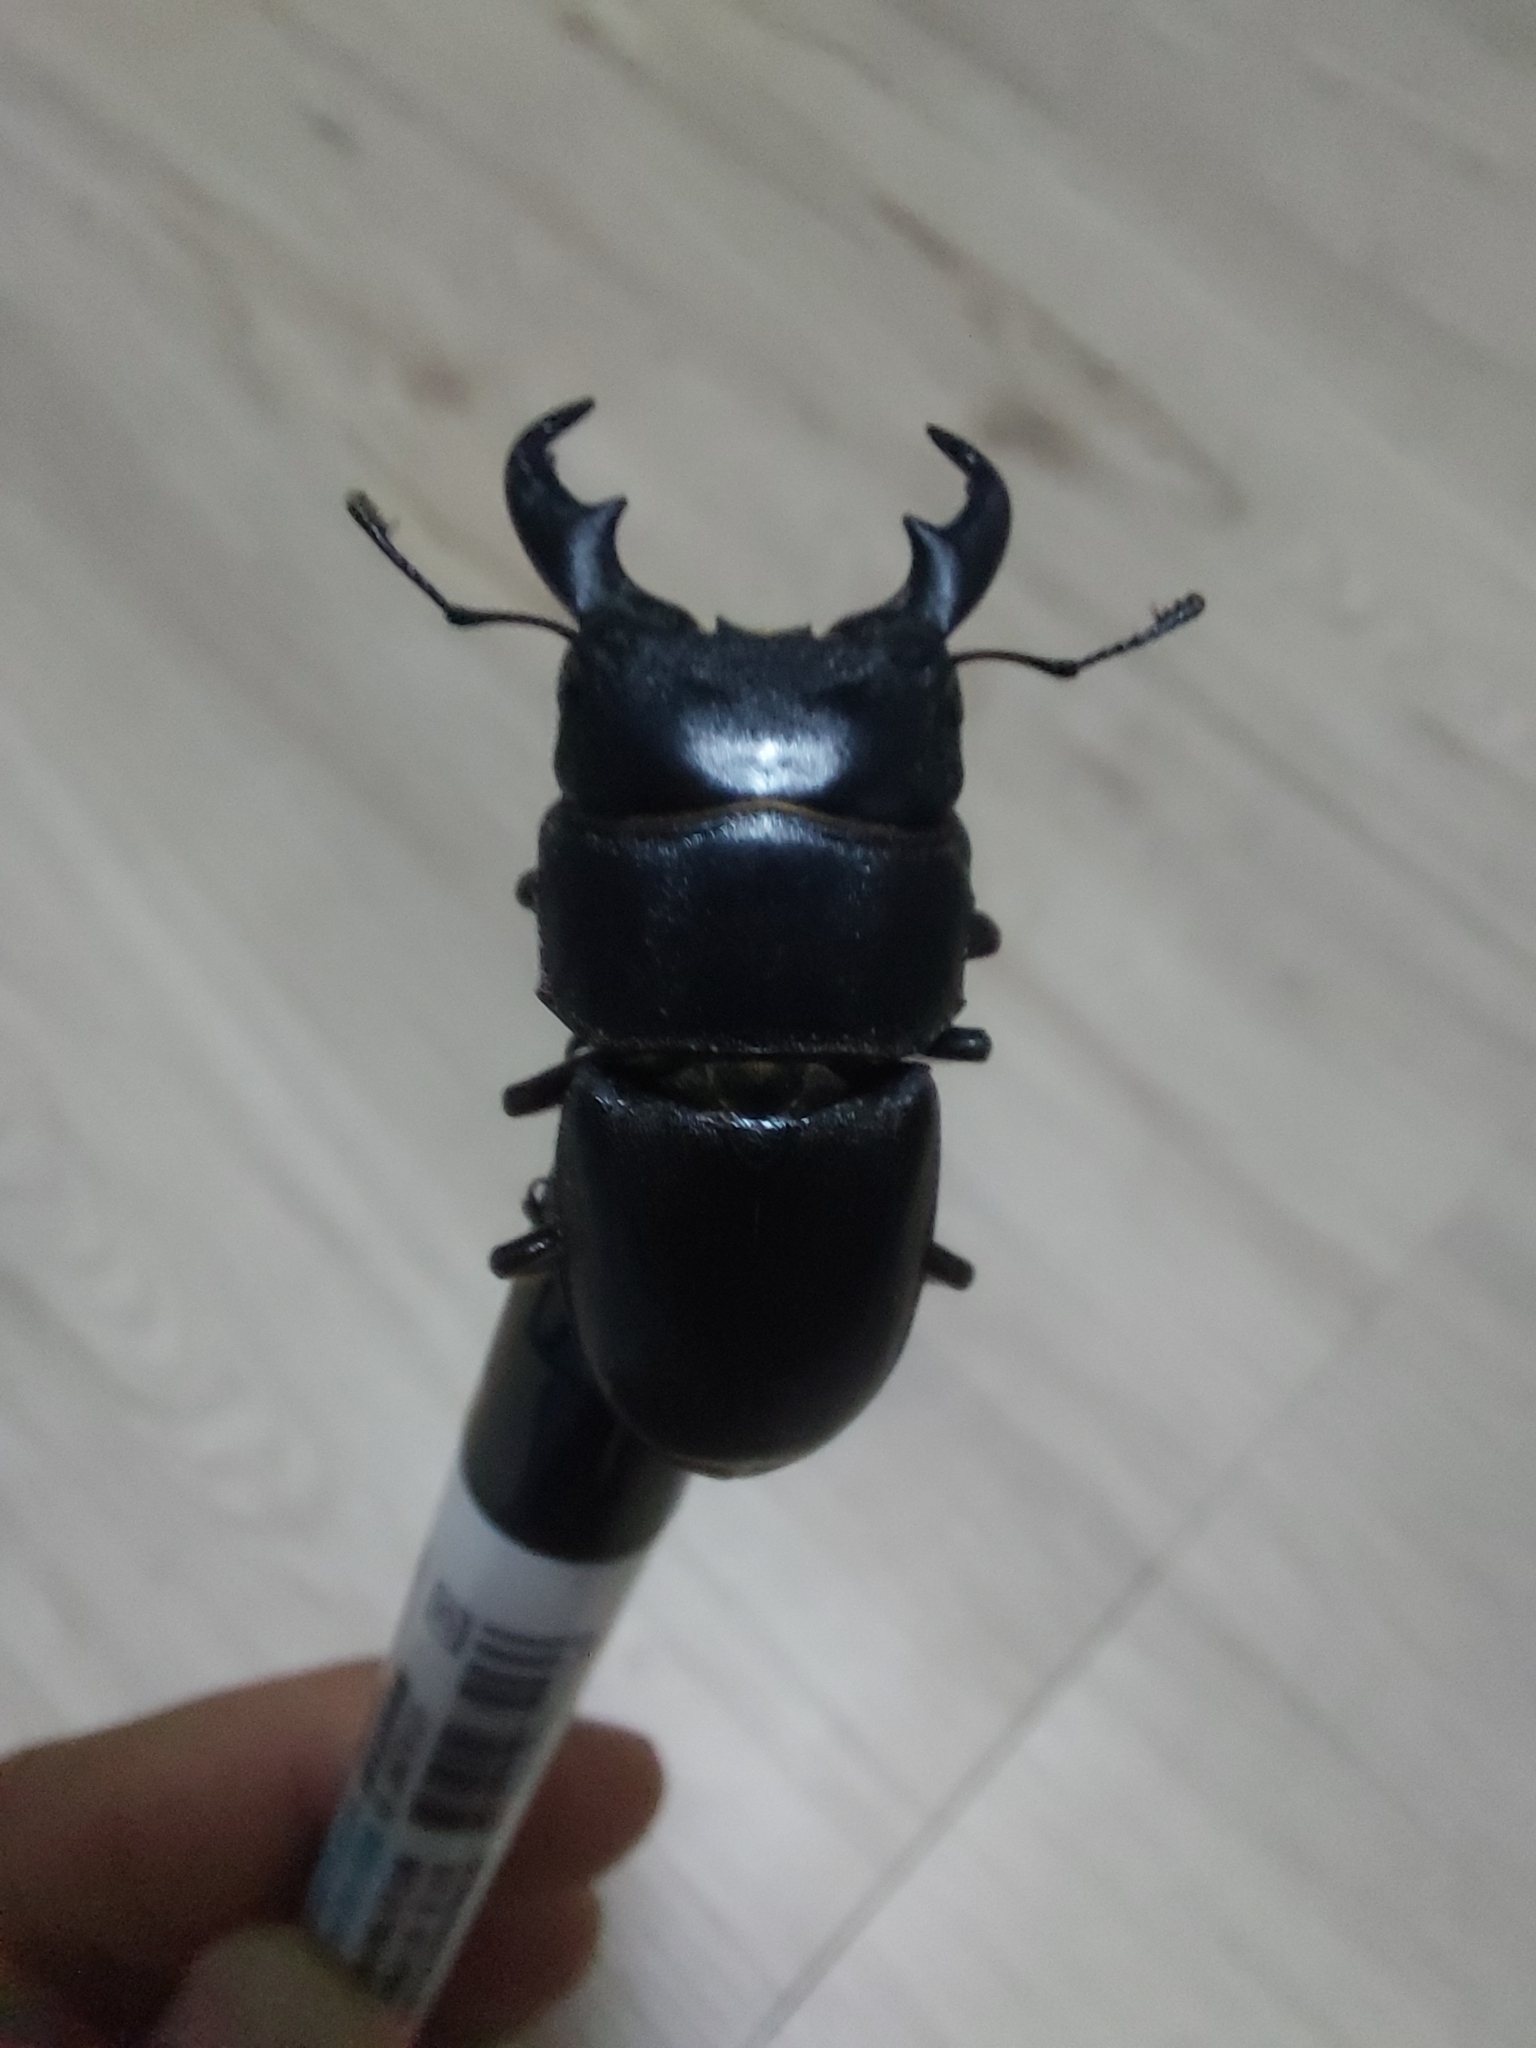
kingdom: Animalia
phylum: Arthropoda
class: Insecta
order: Coleoptera
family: Lucanidae
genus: Serrognathus
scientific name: Serrognathus kyanrauensis
